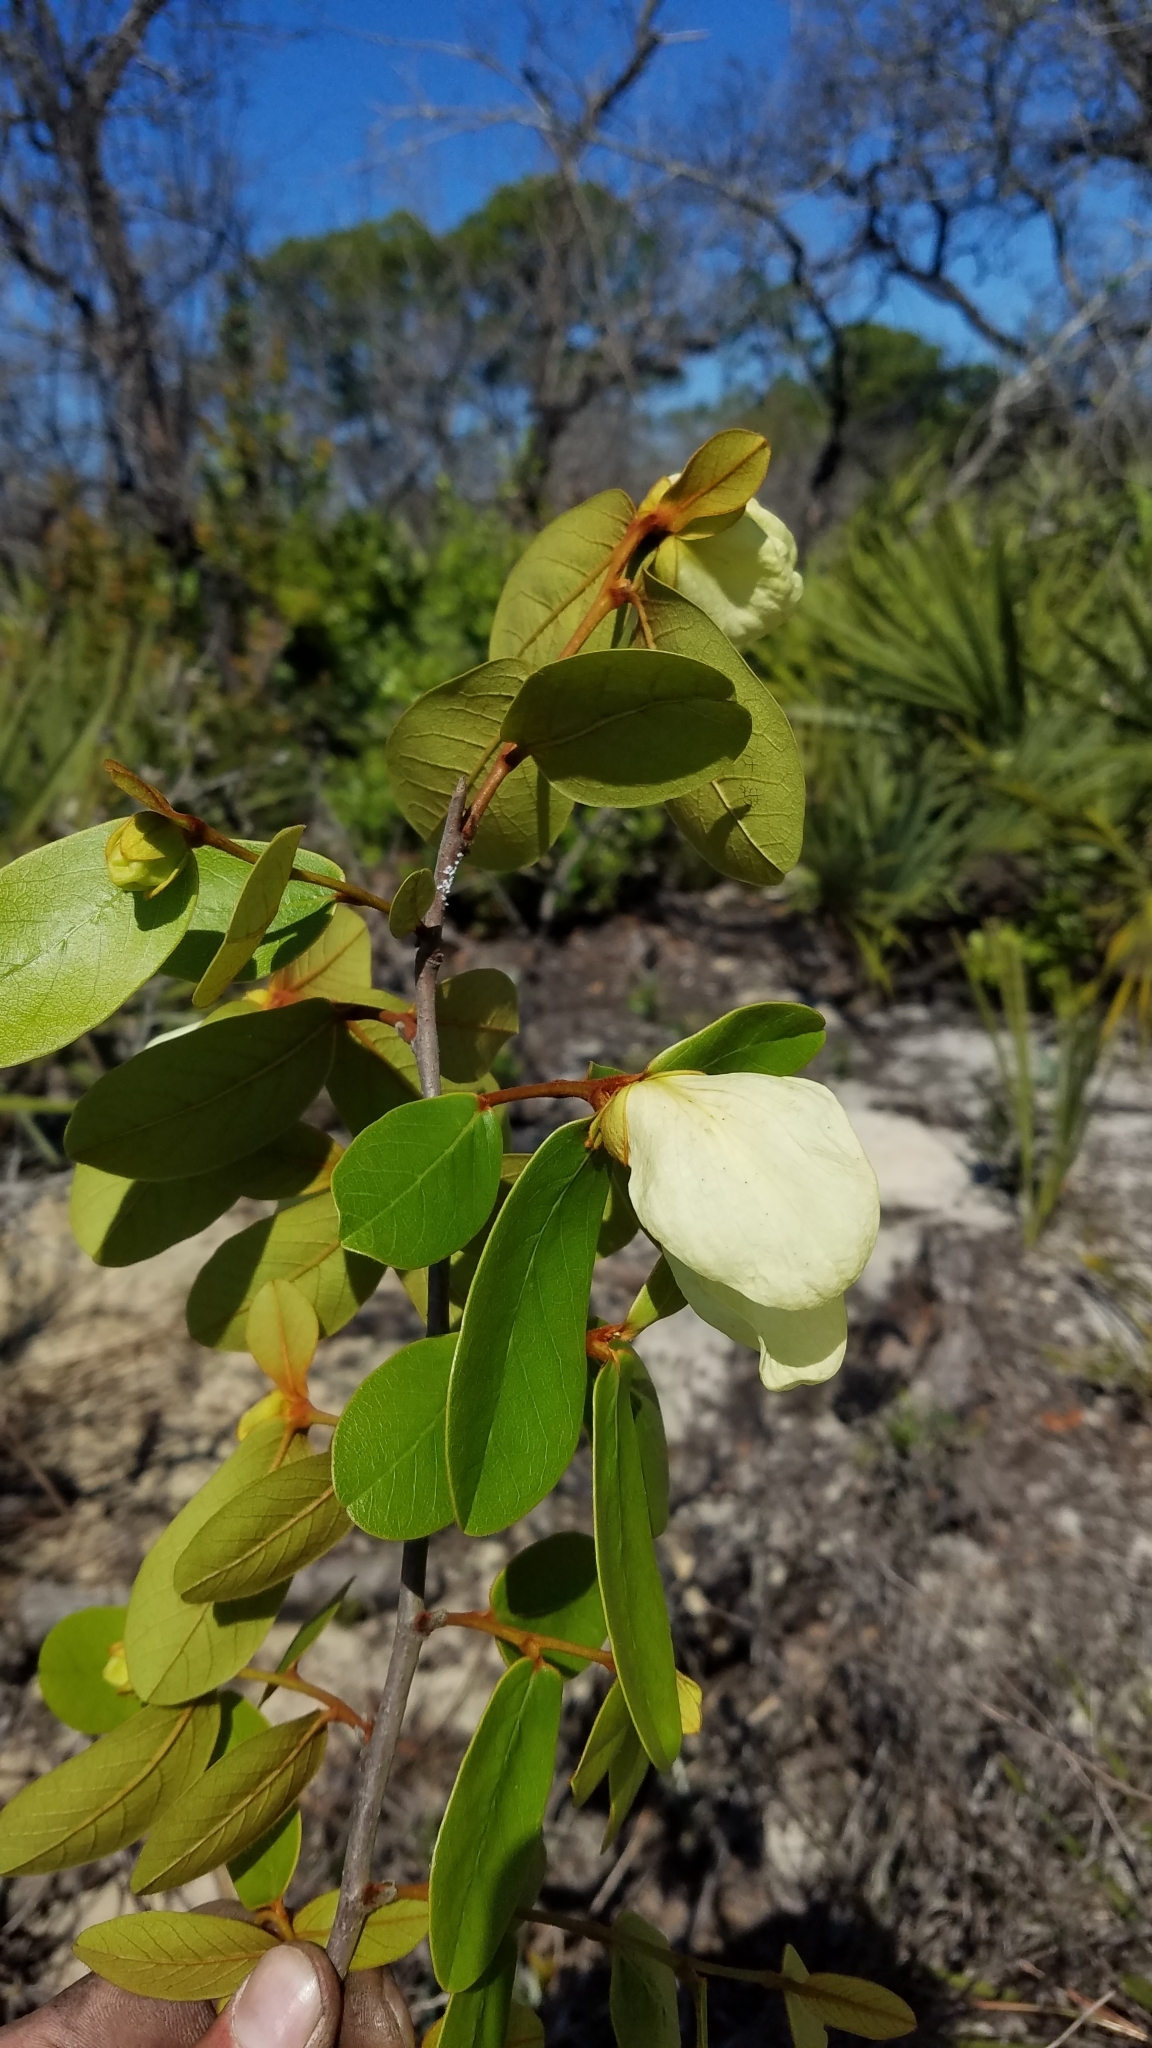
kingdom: Plantae
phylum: Tracheophyta
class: Magnoliopsida
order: Magnoliales
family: Annonaceae
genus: Asimina
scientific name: Asimina obovata
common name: Flag pawpaw
